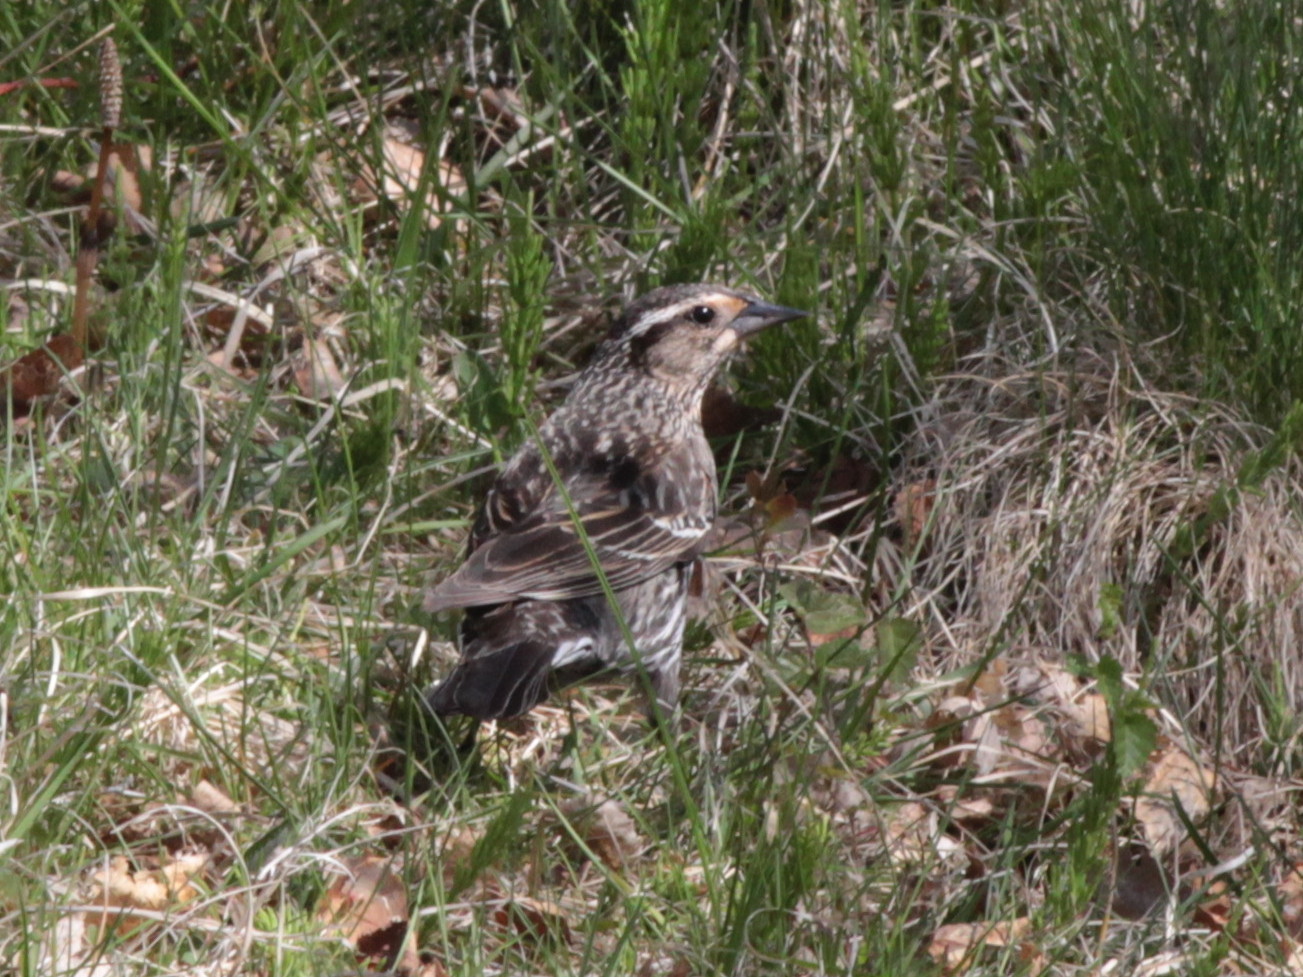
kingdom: Animalia
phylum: Chordata
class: Aves
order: Passeriformes
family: Icteridae
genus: Agelaius
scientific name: Agelaius phoeniceus
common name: Red-winged blackbird
